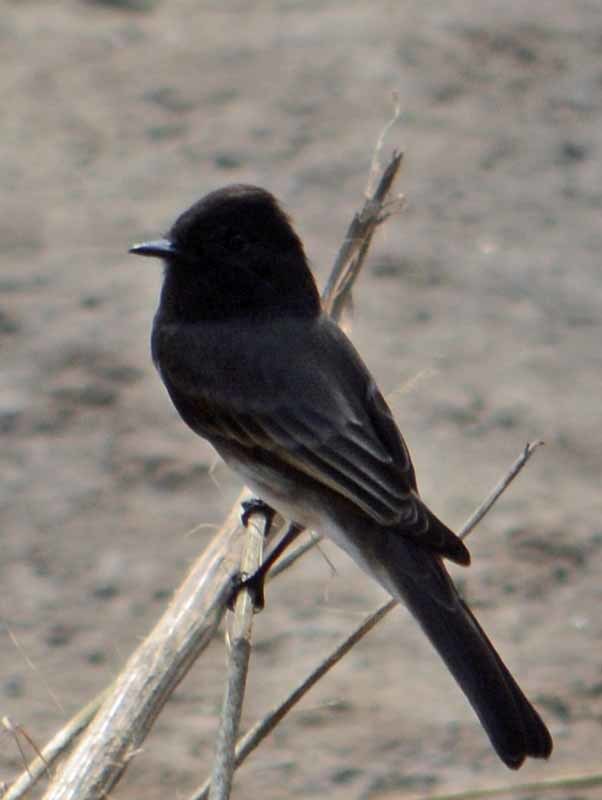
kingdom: Animalia
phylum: Chordata
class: Aves
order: Passeriformes
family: Tyrannidae
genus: Sayornis
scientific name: Sayornis nigricans
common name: Black phoebe
